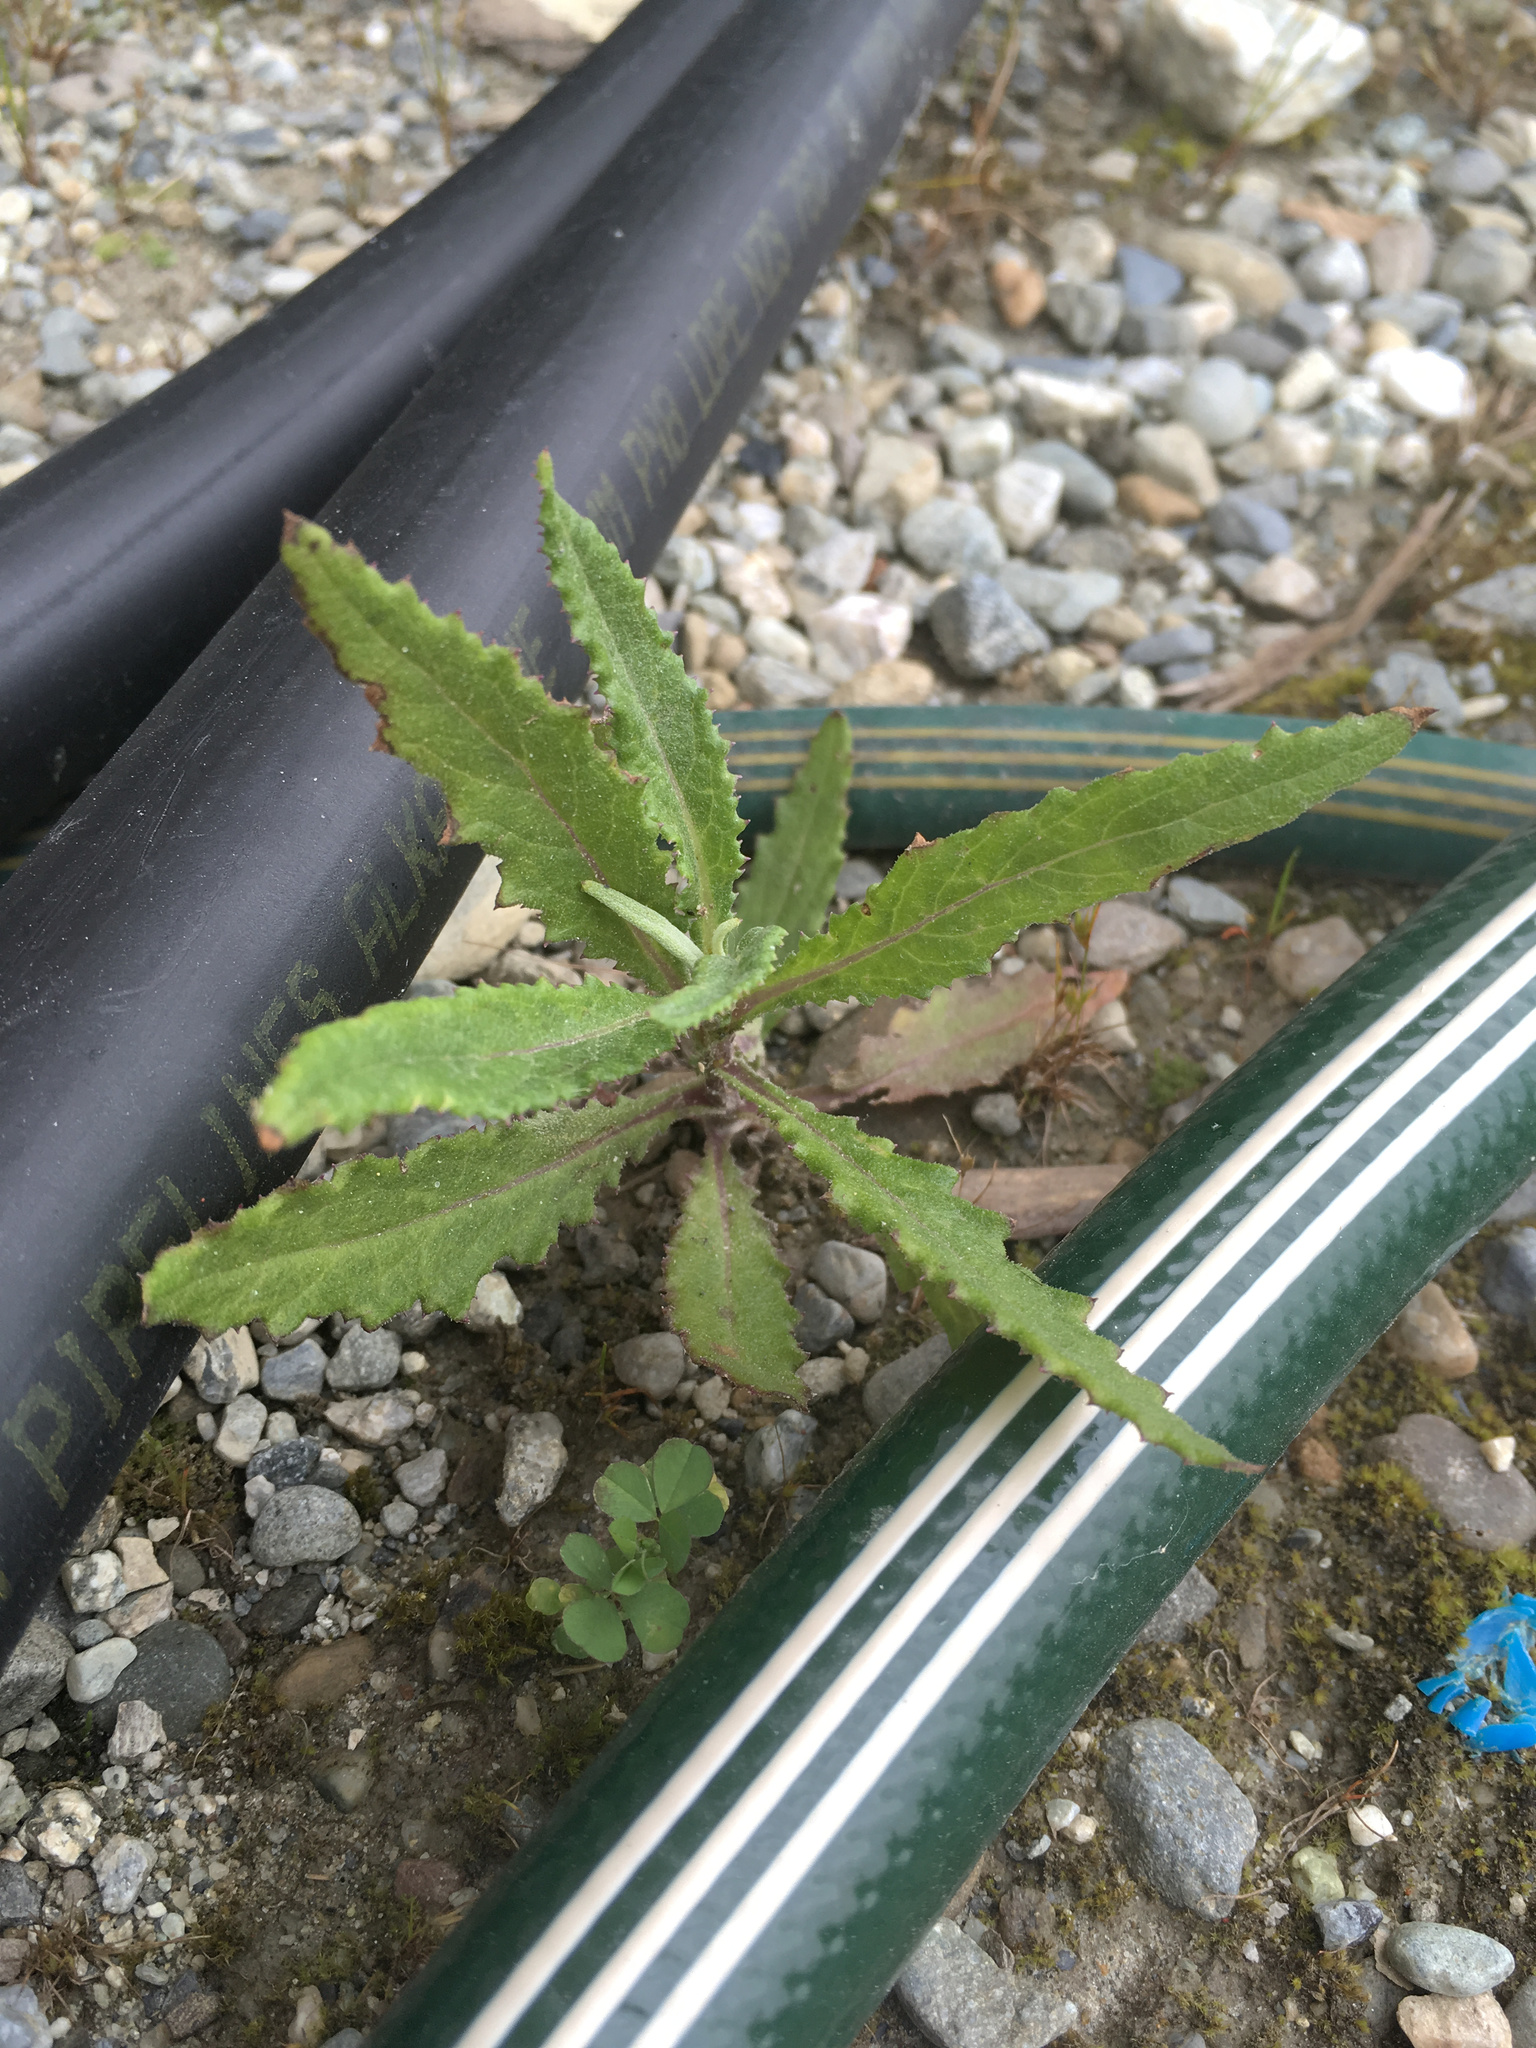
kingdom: Plantae
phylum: Tracheophyta
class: Magnoliopsida
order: Asterales
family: Asteraceae
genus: Senecio
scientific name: Senecio minimus
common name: Toothed fireweed
